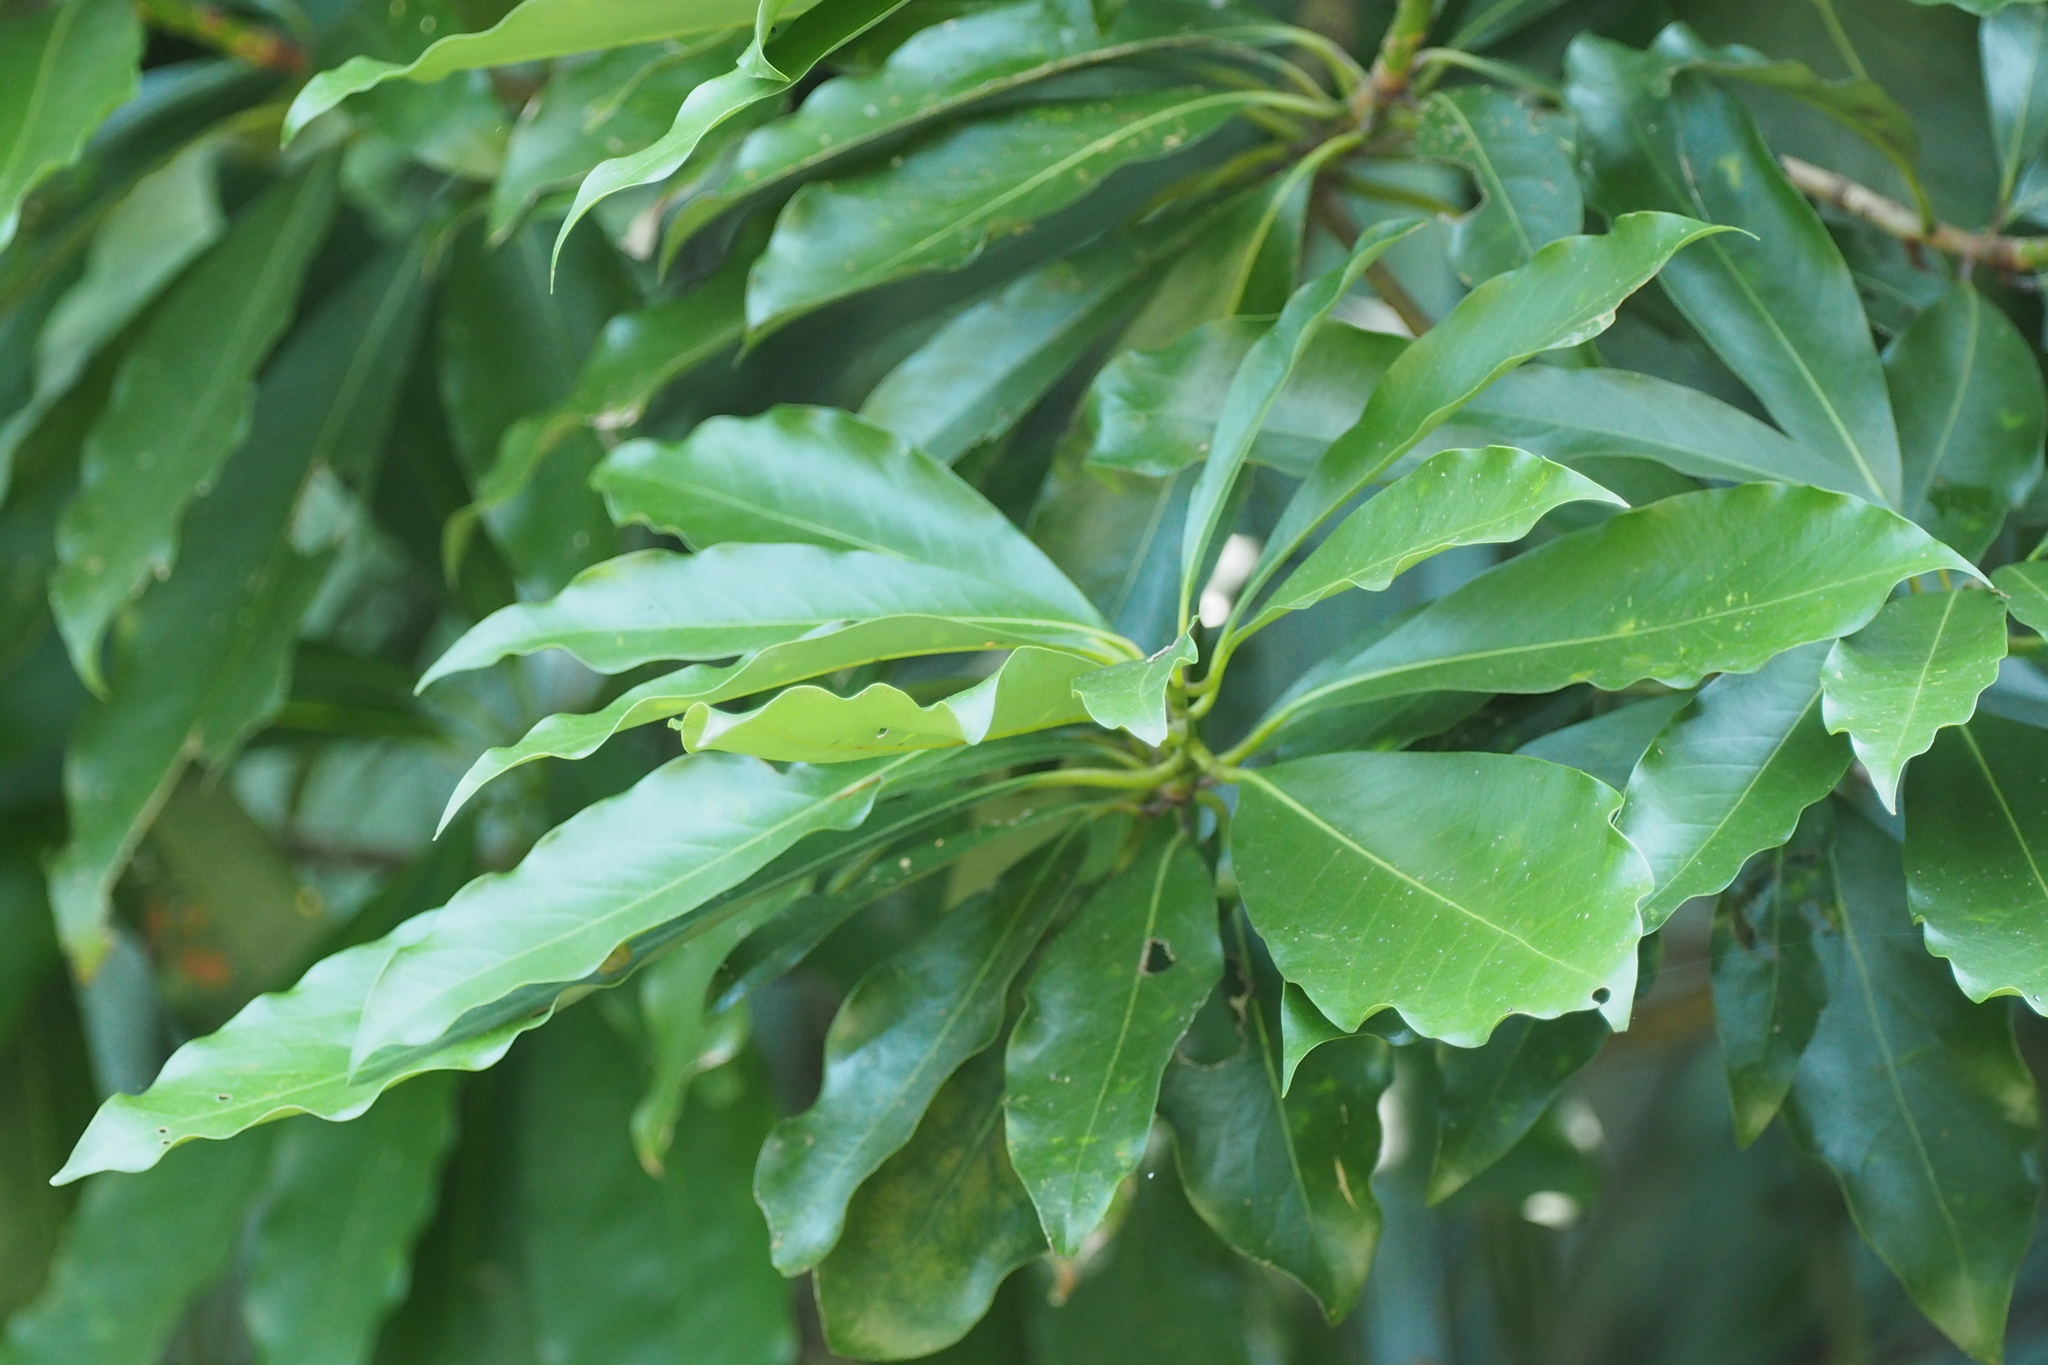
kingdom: Plantae
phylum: Tracheophyta
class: Magnoliopsida
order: Laurales
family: Lauraceae
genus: Machilus
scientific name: Machilus japonica
